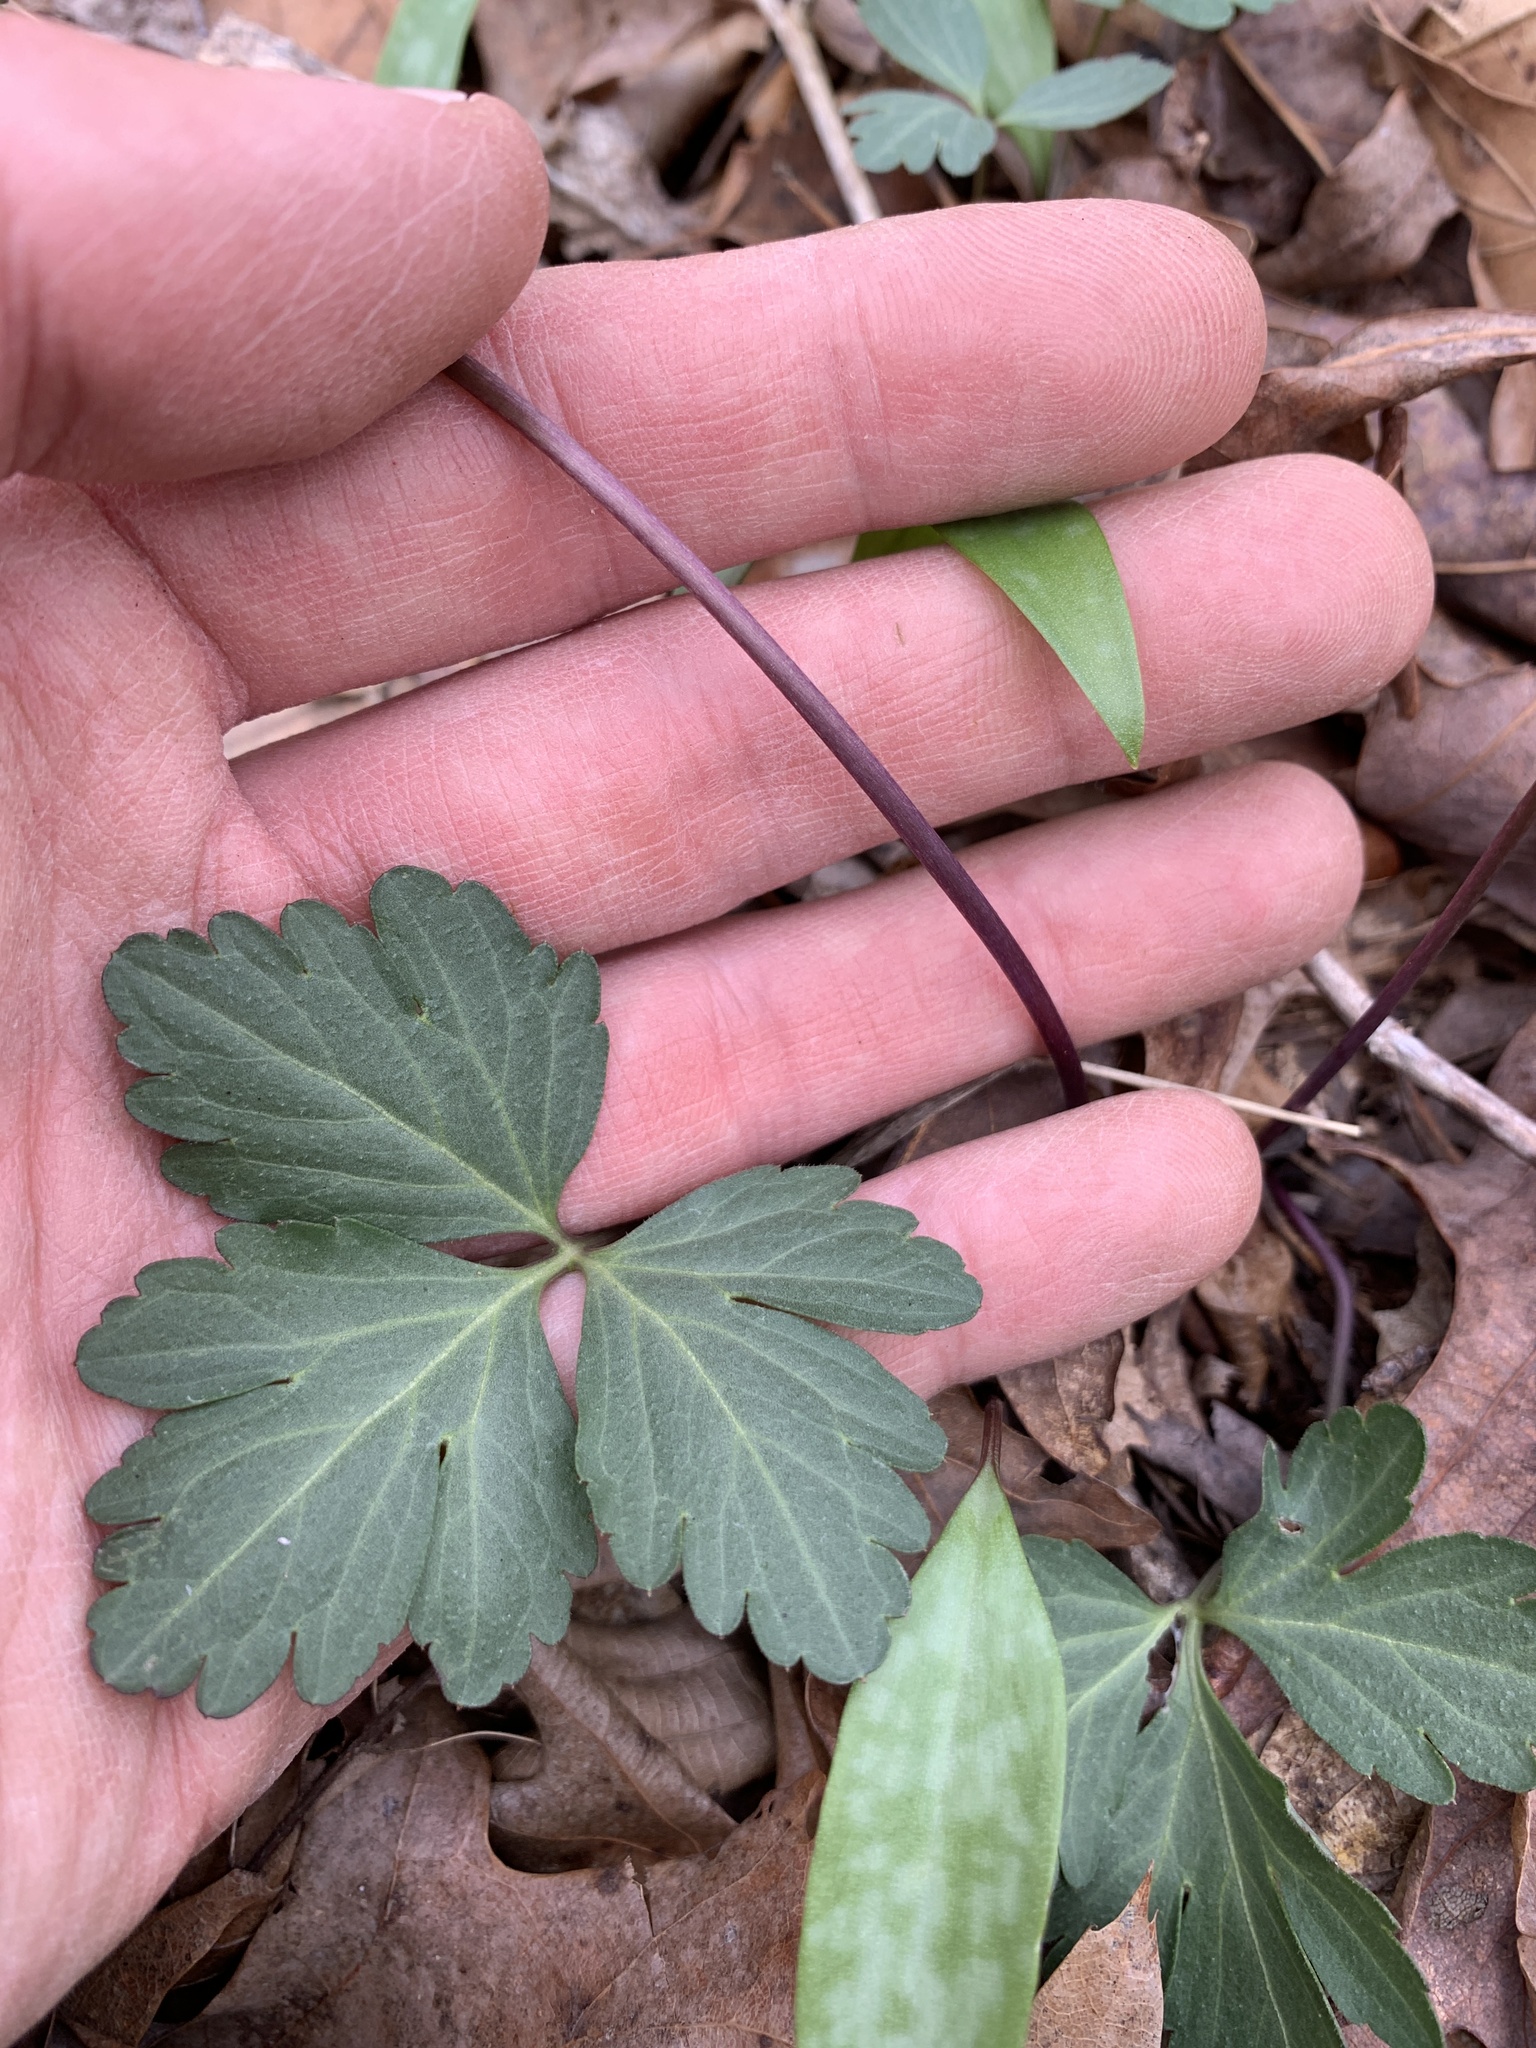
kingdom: Plantae
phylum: Tracheophyta
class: Magnoliopsida
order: Brassicales
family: Brassicaceae
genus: Cardamine
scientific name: Cardamine angustata
